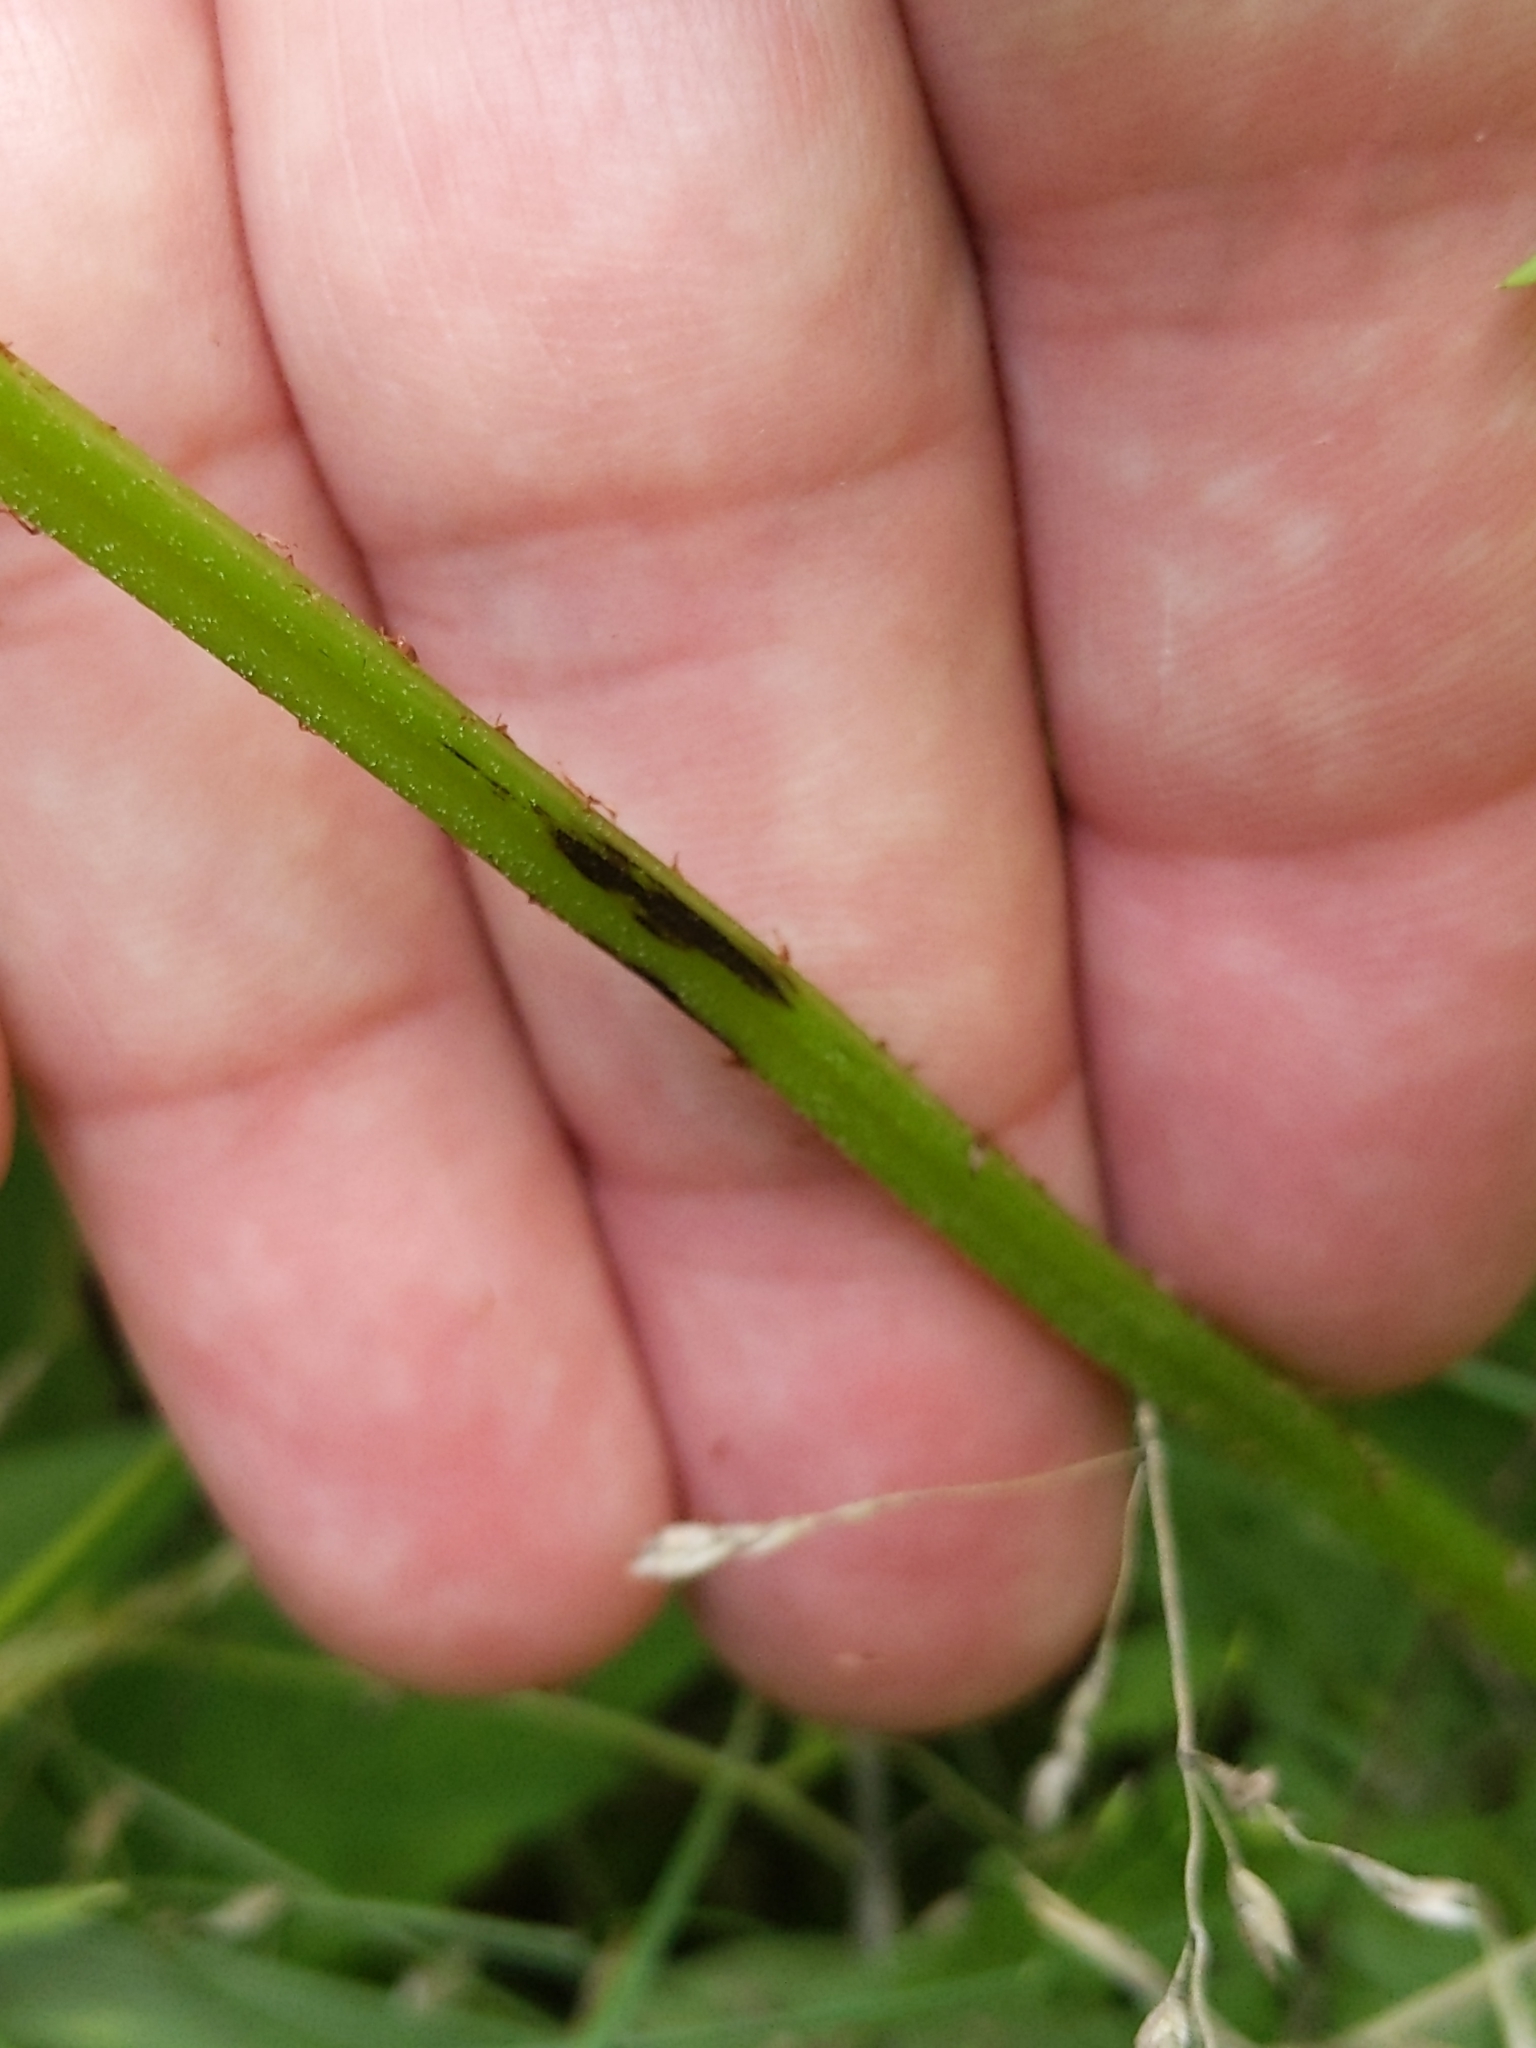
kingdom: Plantae
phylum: Tracheophyta
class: Polypodiopsida
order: Polypodiales
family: Athyriaceae
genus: Athyrium
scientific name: Athyrium angustum
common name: Northern lady fern
